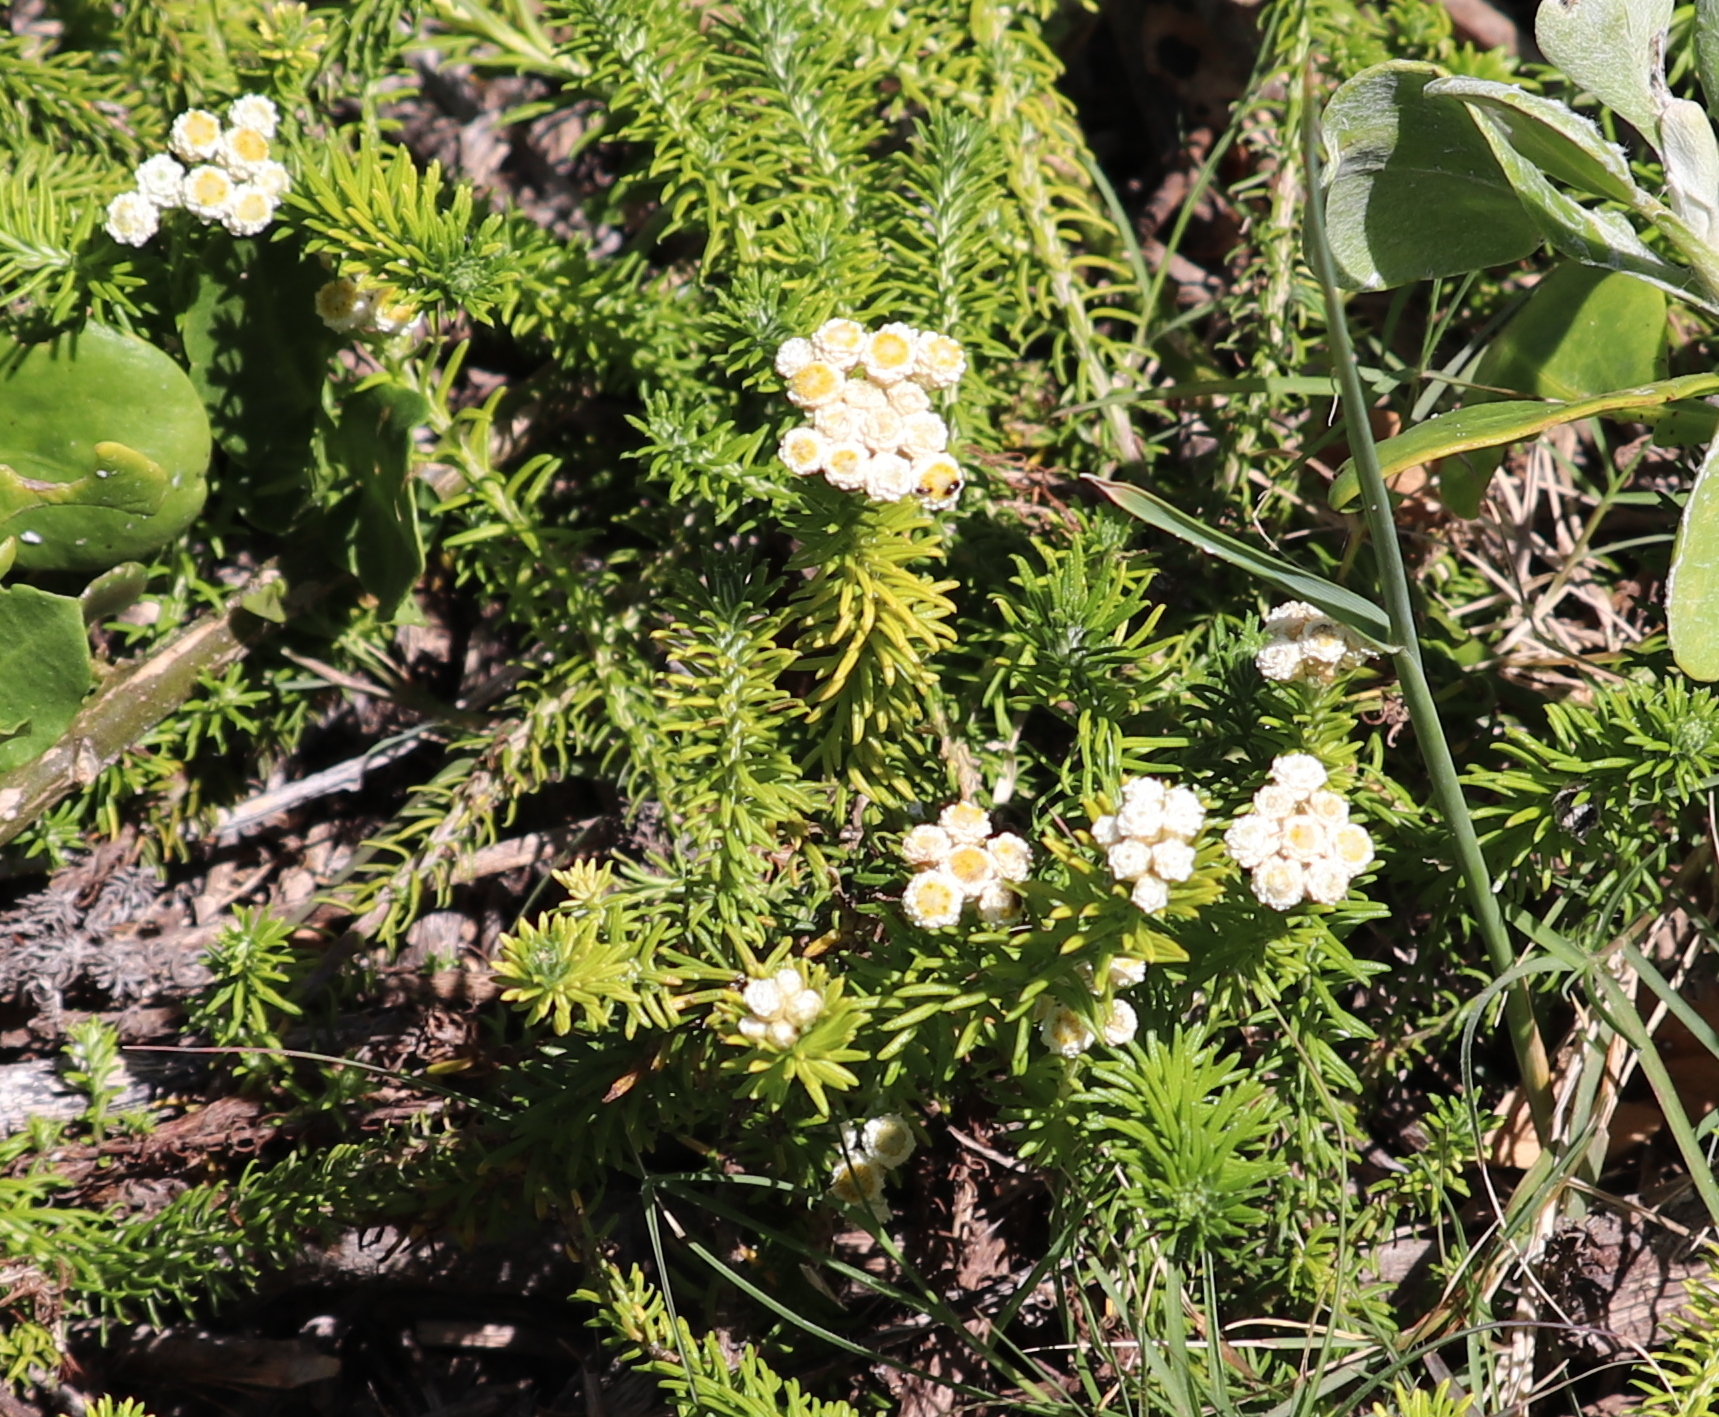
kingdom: Plantae
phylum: Tracheophyta
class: Magnoliopsida
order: Asterales
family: Asteraceae
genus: Helichrysum
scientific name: Helichrysum teretifolium
